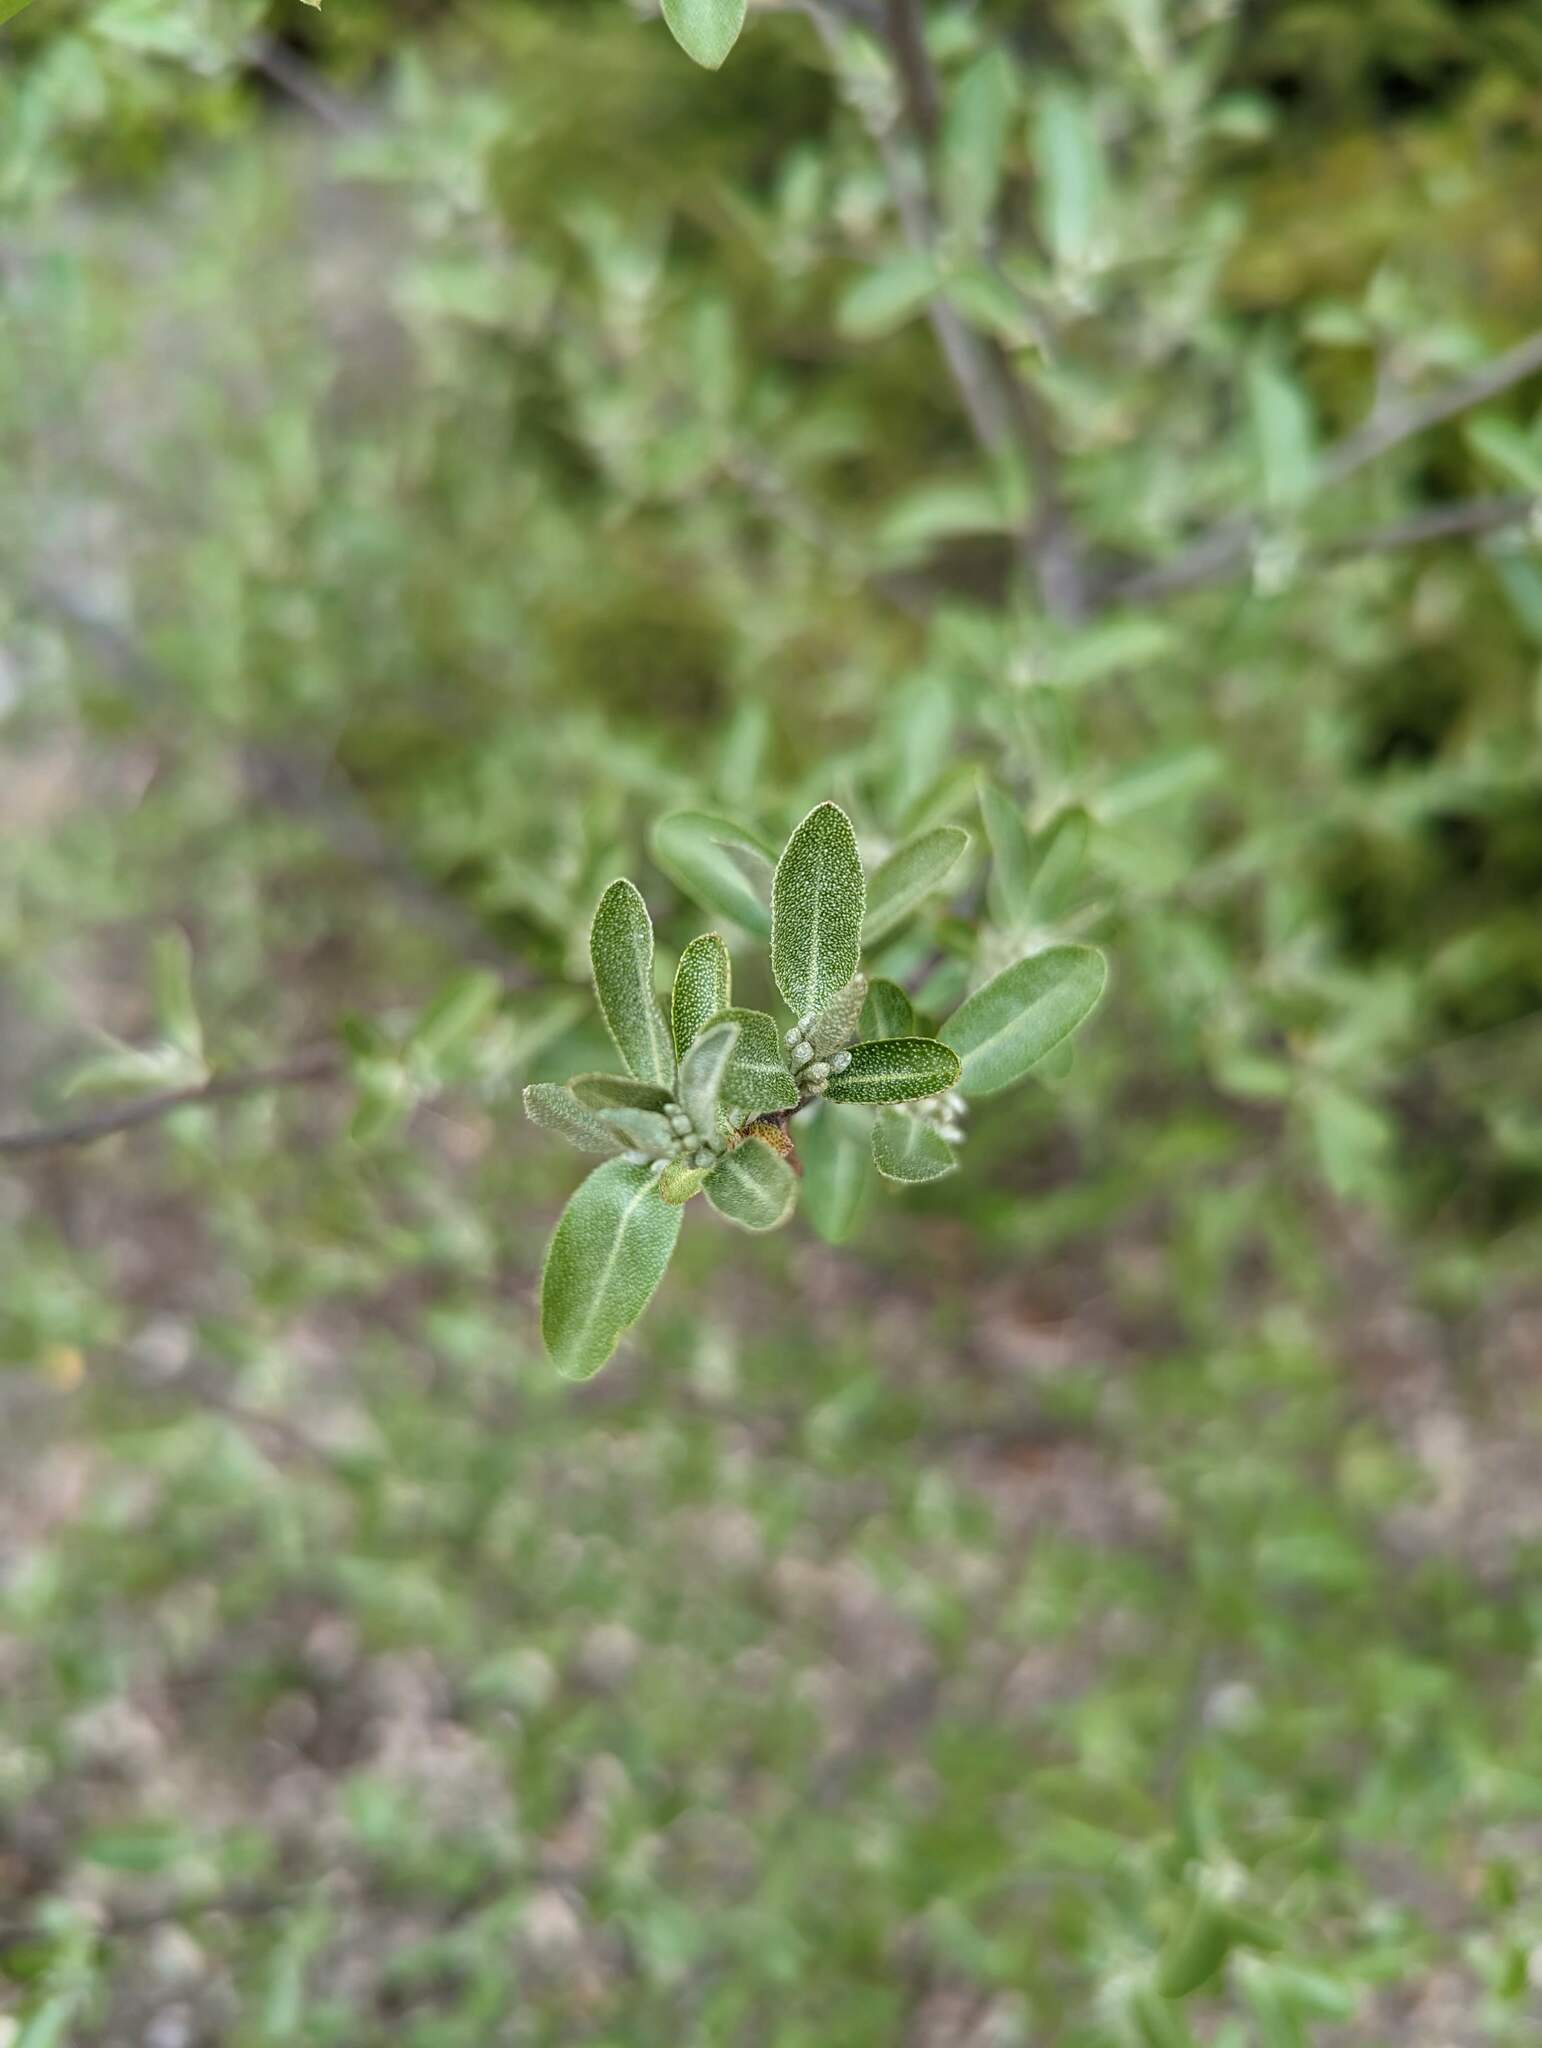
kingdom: Plantae
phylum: Tracheophyta
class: Magnoliopsida
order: Rosales
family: Elaeagnaceae
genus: Elaeagnus
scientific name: Elaeagnus umbellata
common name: Autumn olive
